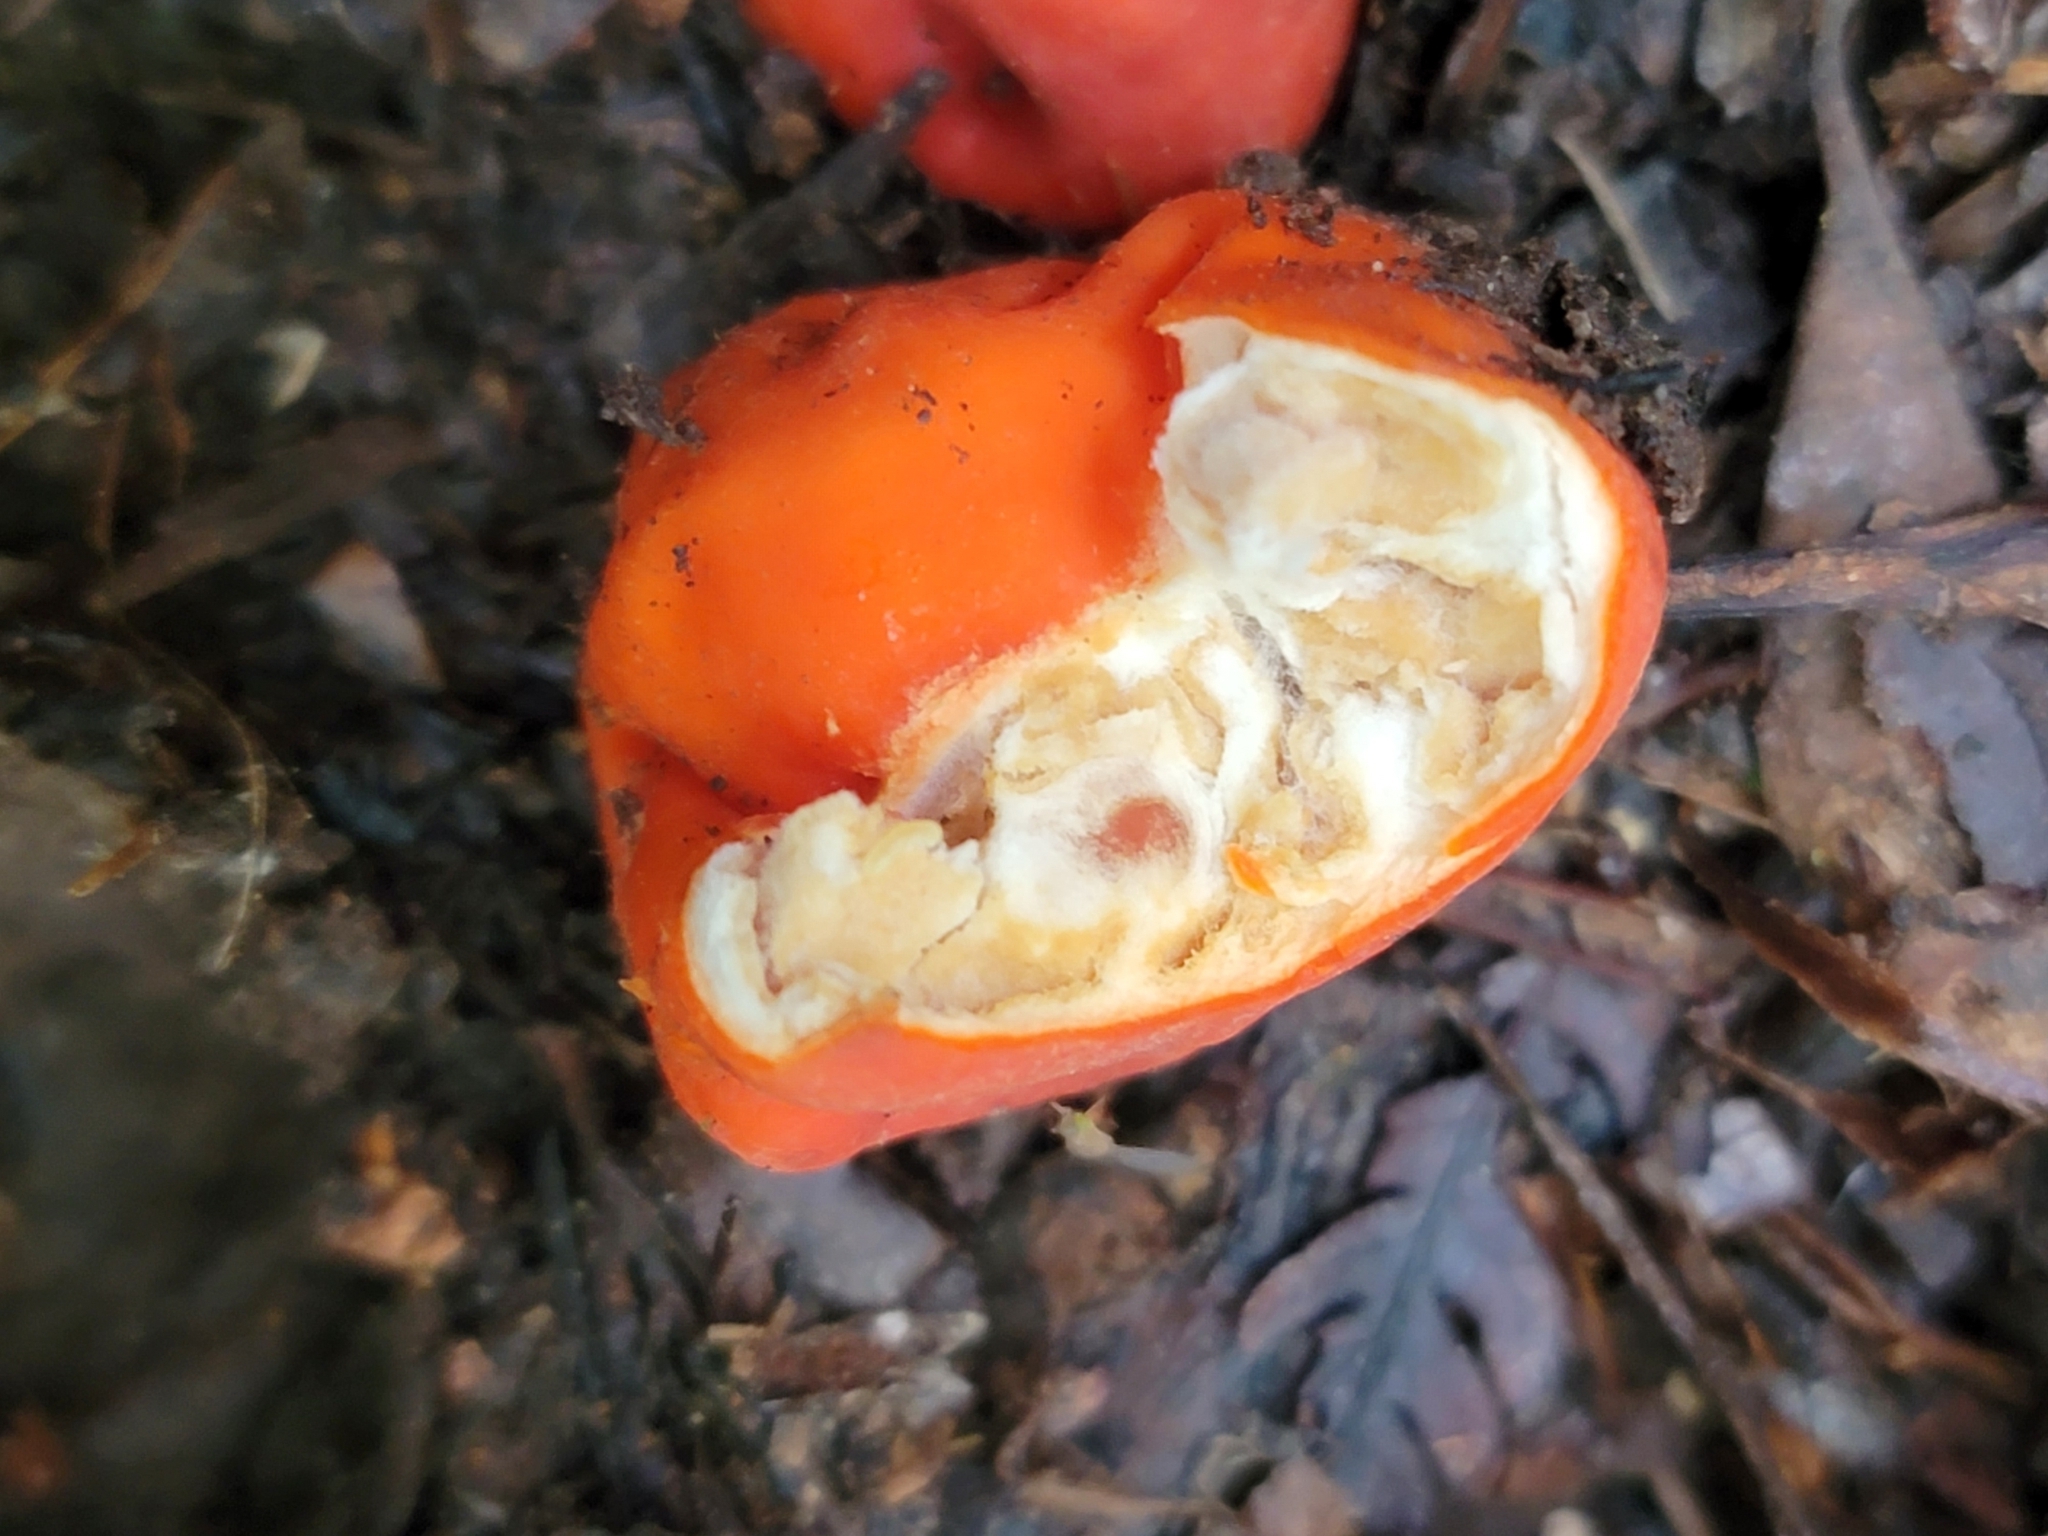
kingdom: Fungi
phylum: Ascomycota
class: Pezizomycetes
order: Pezizales
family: Pyronemataceae
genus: Paurocotylis
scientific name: Paurocotylis pila
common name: Scarlet berry truffle
